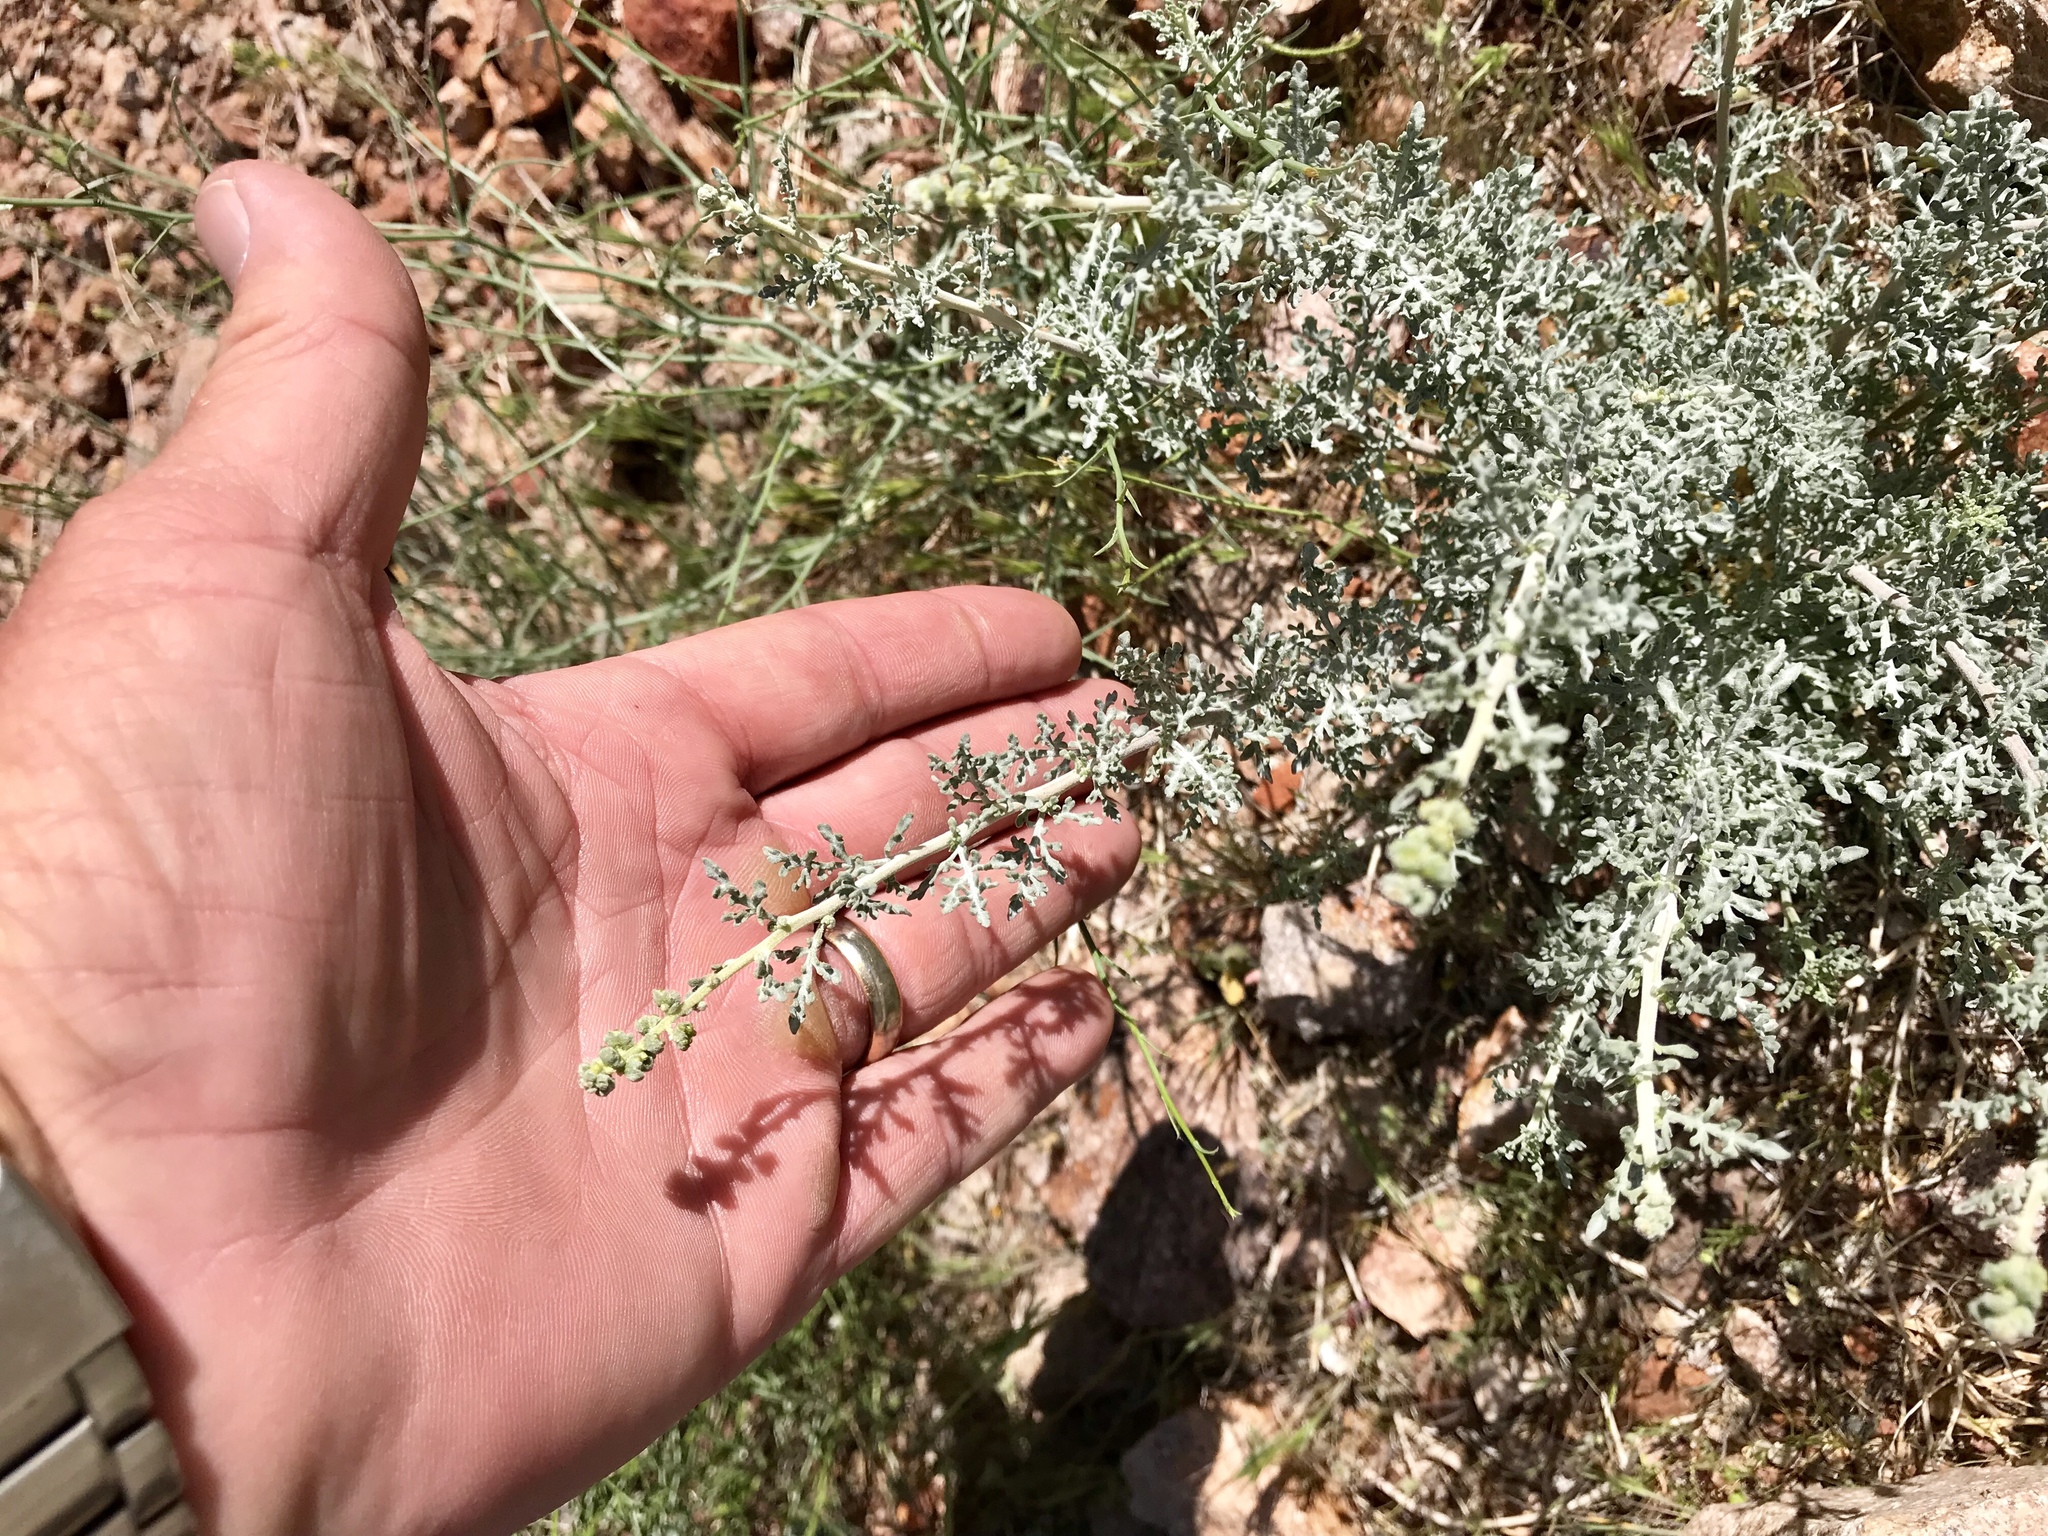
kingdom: Plantae
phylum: Tracheophyta
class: Magnoliopsida
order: Asterales
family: Asteraceae
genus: Ambrosia
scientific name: Ambrosia dumosa
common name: Bur-sage
